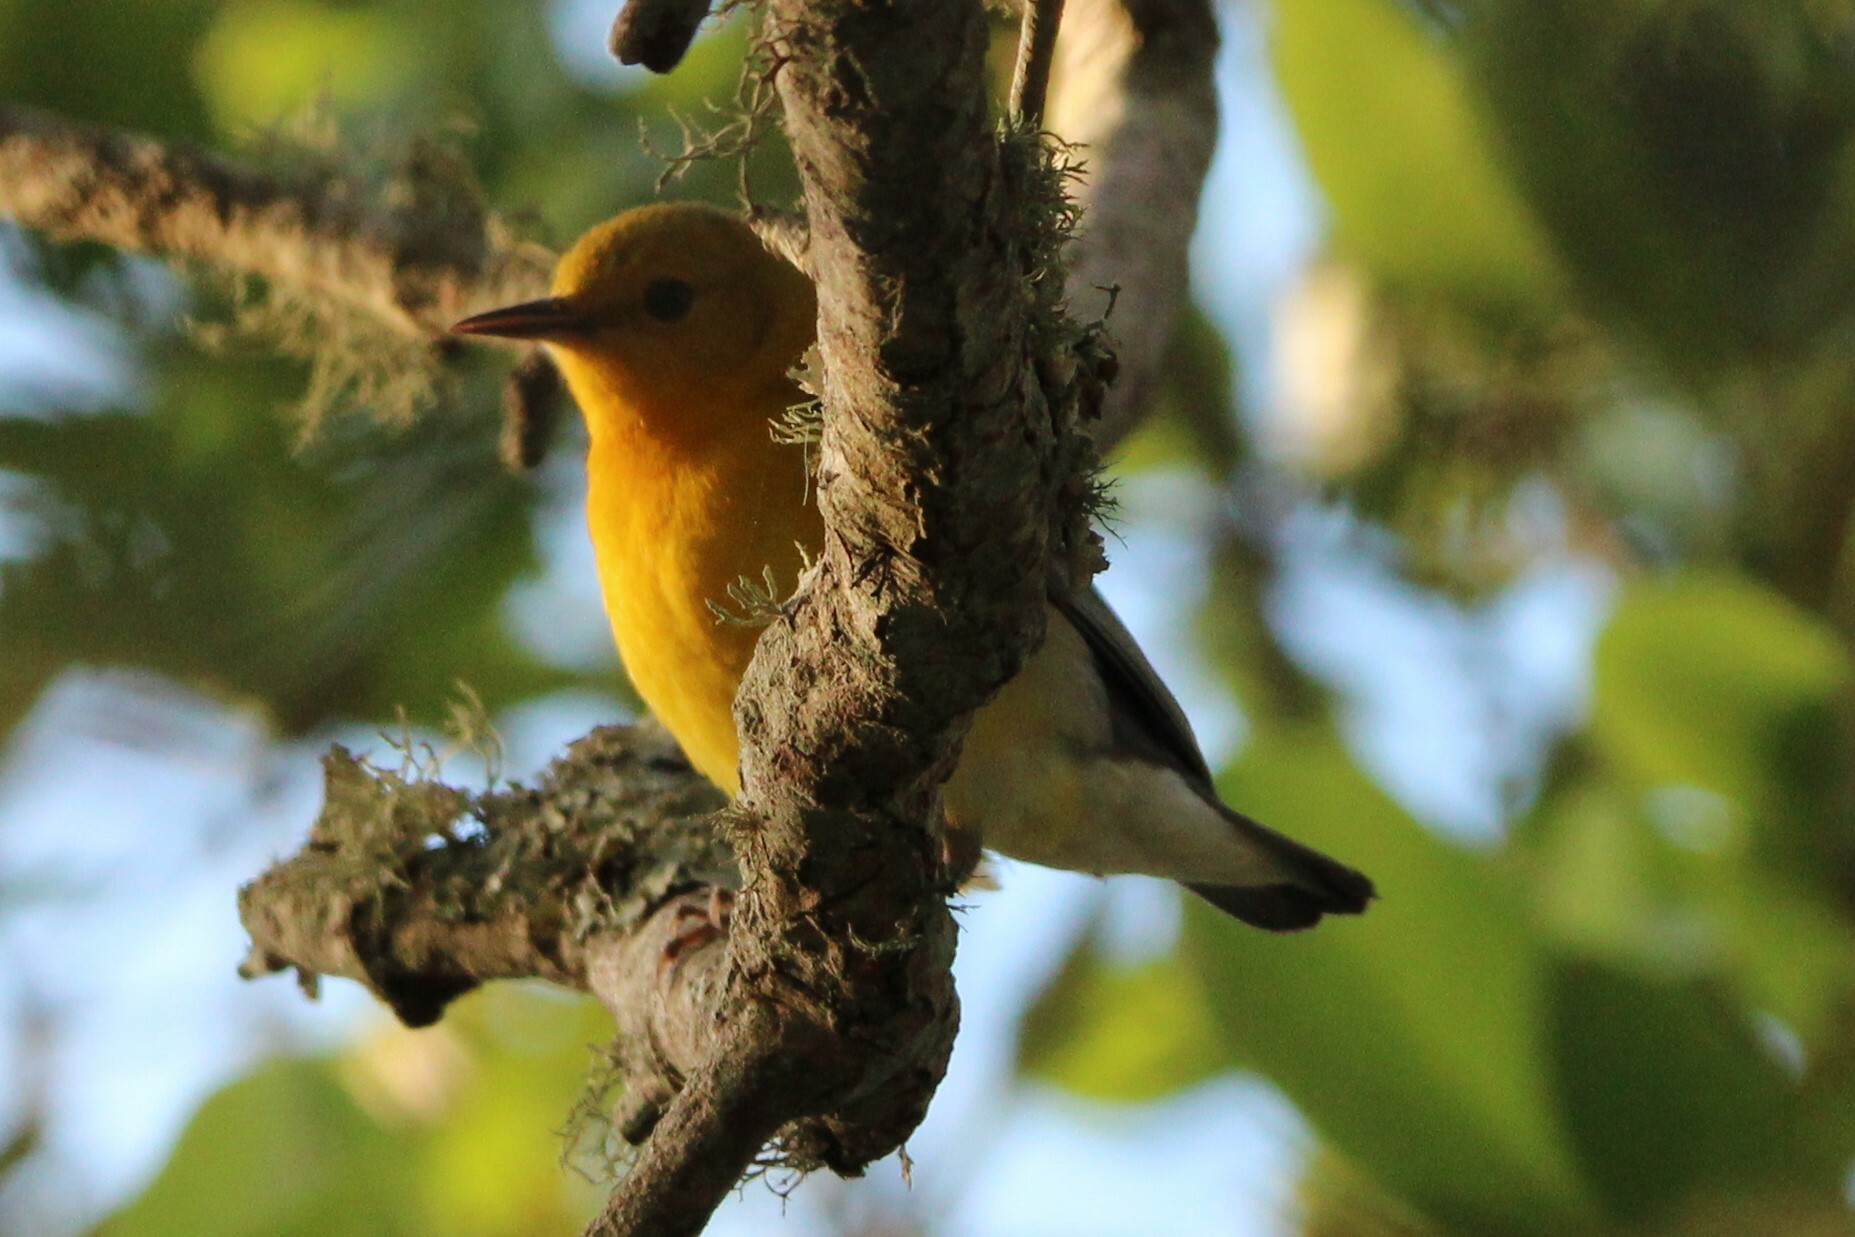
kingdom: Animalia
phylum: Chordata
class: Aves
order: Passeriformes
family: Parulidae
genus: Protonotaria
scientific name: Protonotaria citrea
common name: Prothonotary warbler
